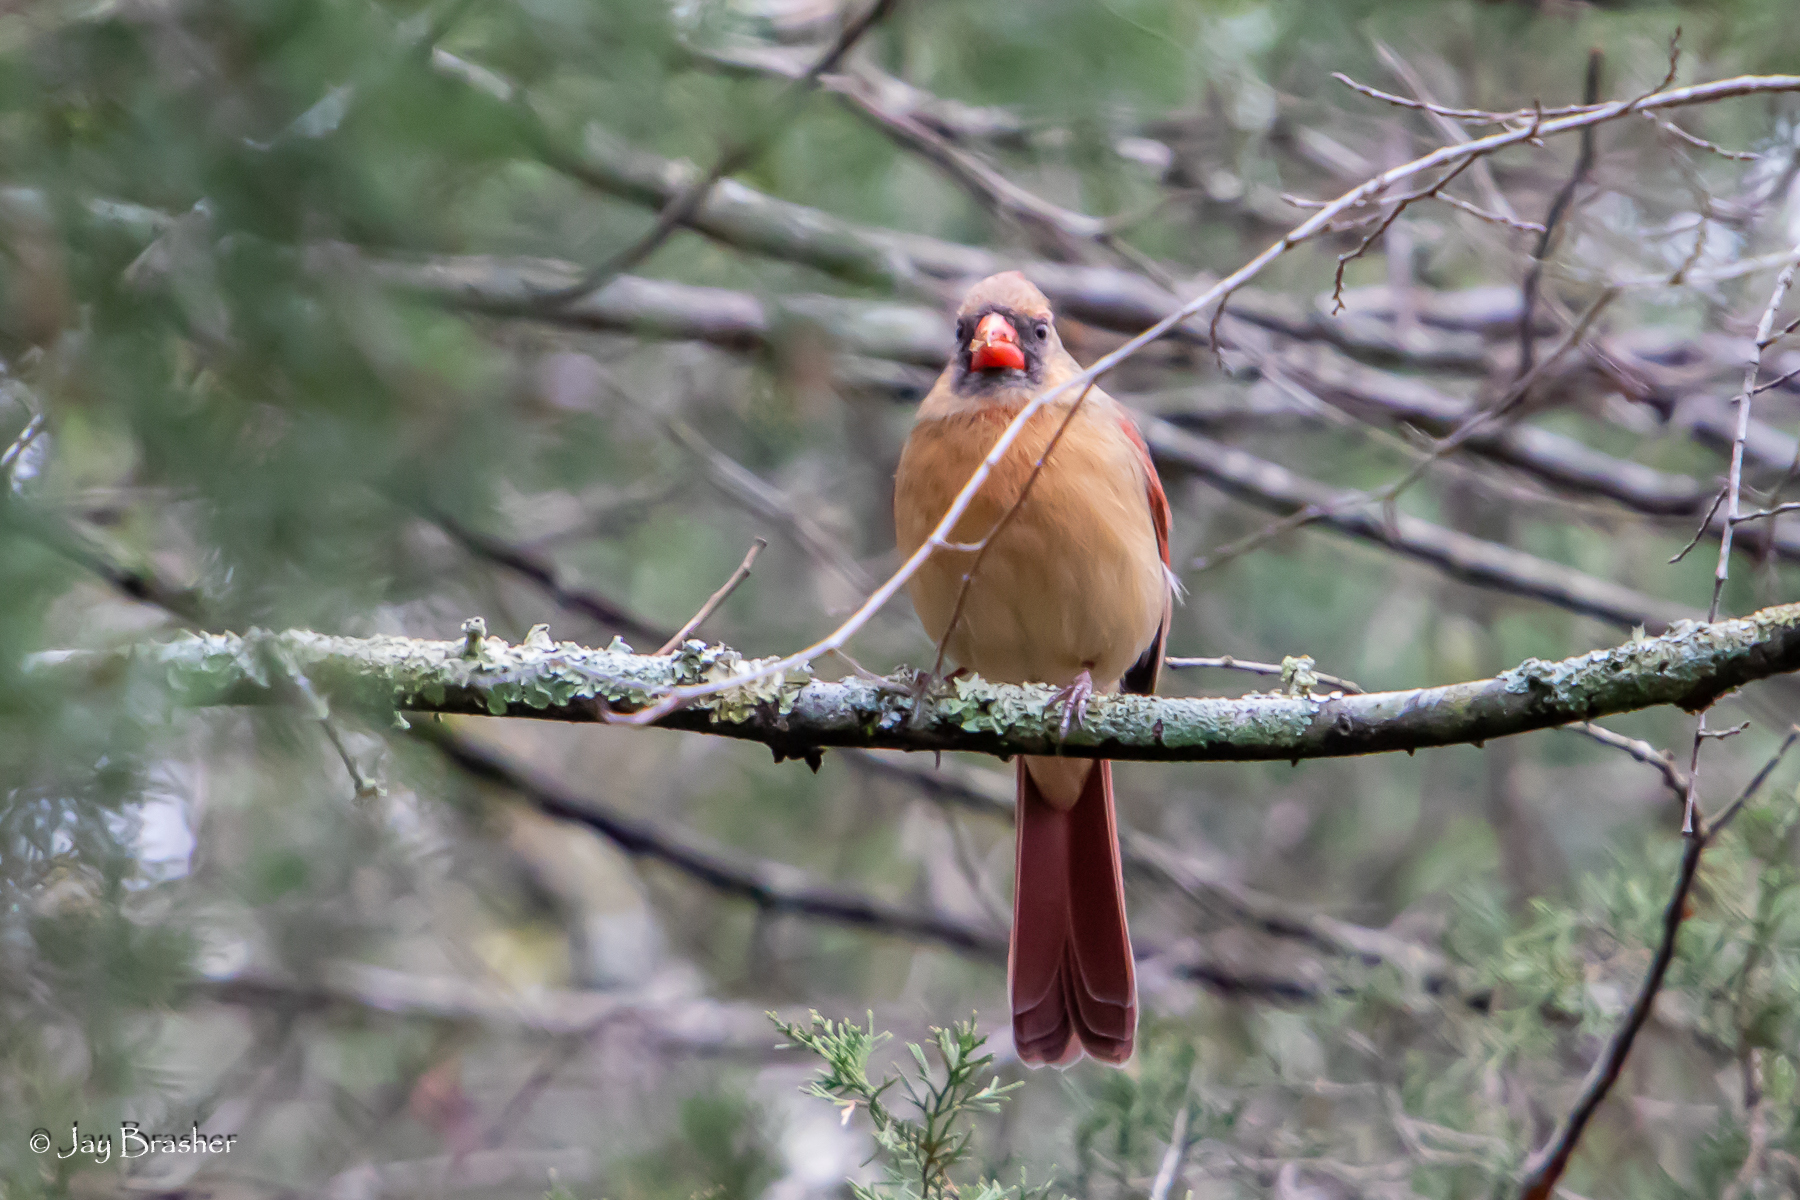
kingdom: Animalia
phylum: Chordata
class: Aves
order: Passeriformes
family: Cardinalidae
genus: Cardinalis
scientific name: Cardinalis cardinalis
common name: Northern cardinal
